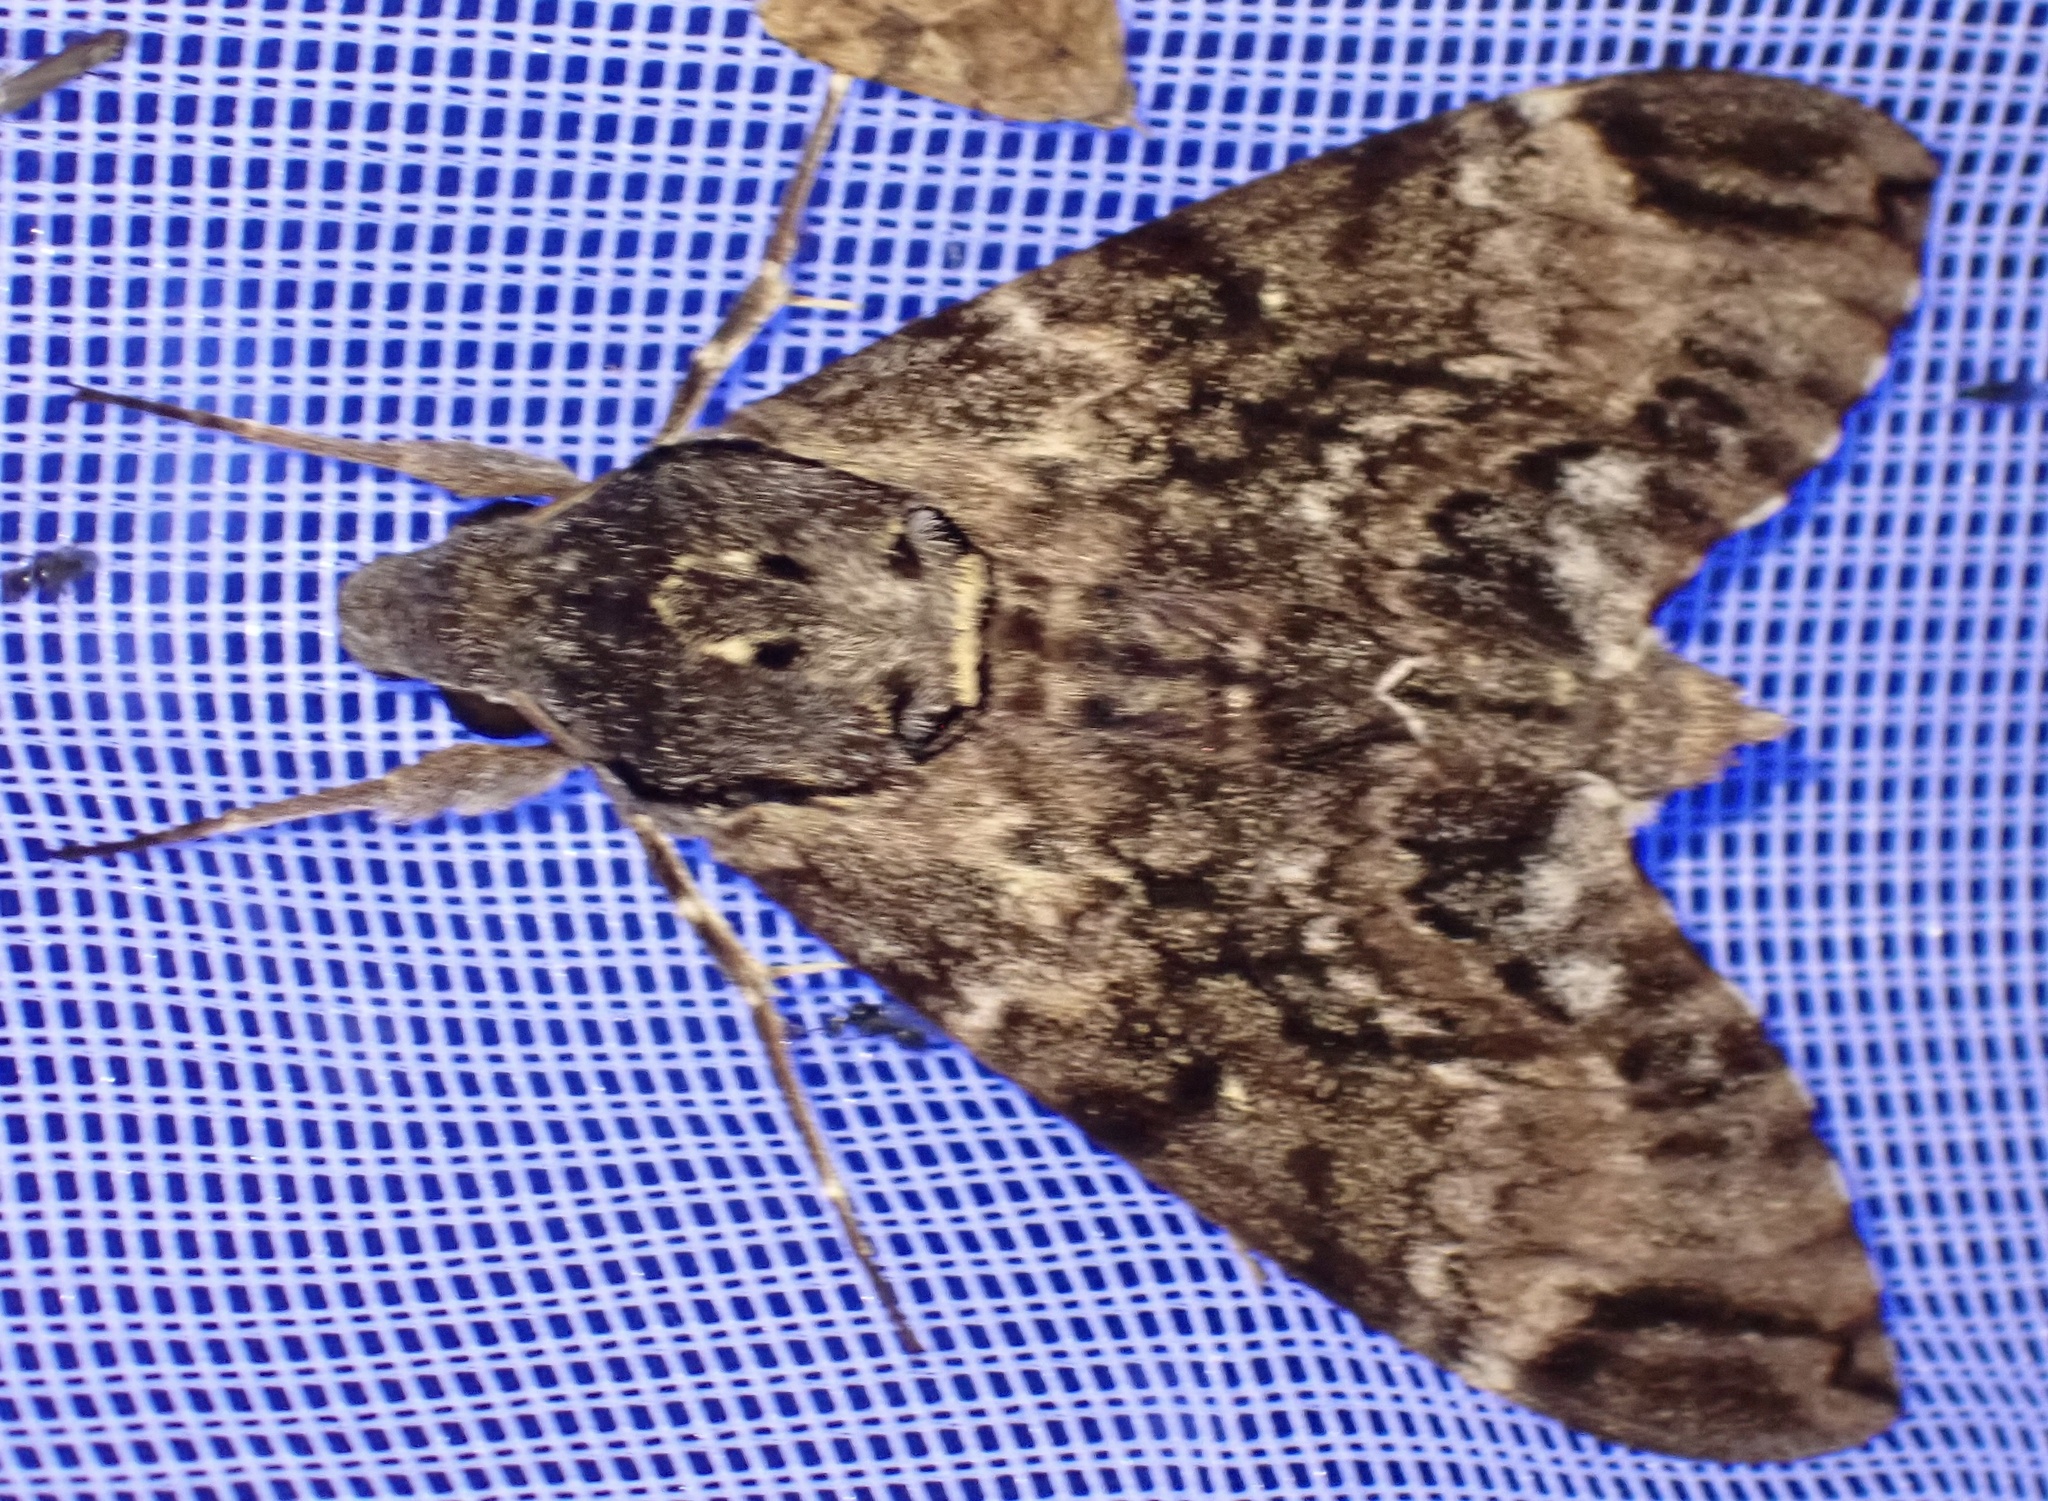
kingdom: Animalia
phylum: Arthropoda
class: Insecta
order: Lepidoptera
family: Sphingidae
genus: Psilogramma
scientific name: Psilogramma menephron
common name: Gray hawk moth
